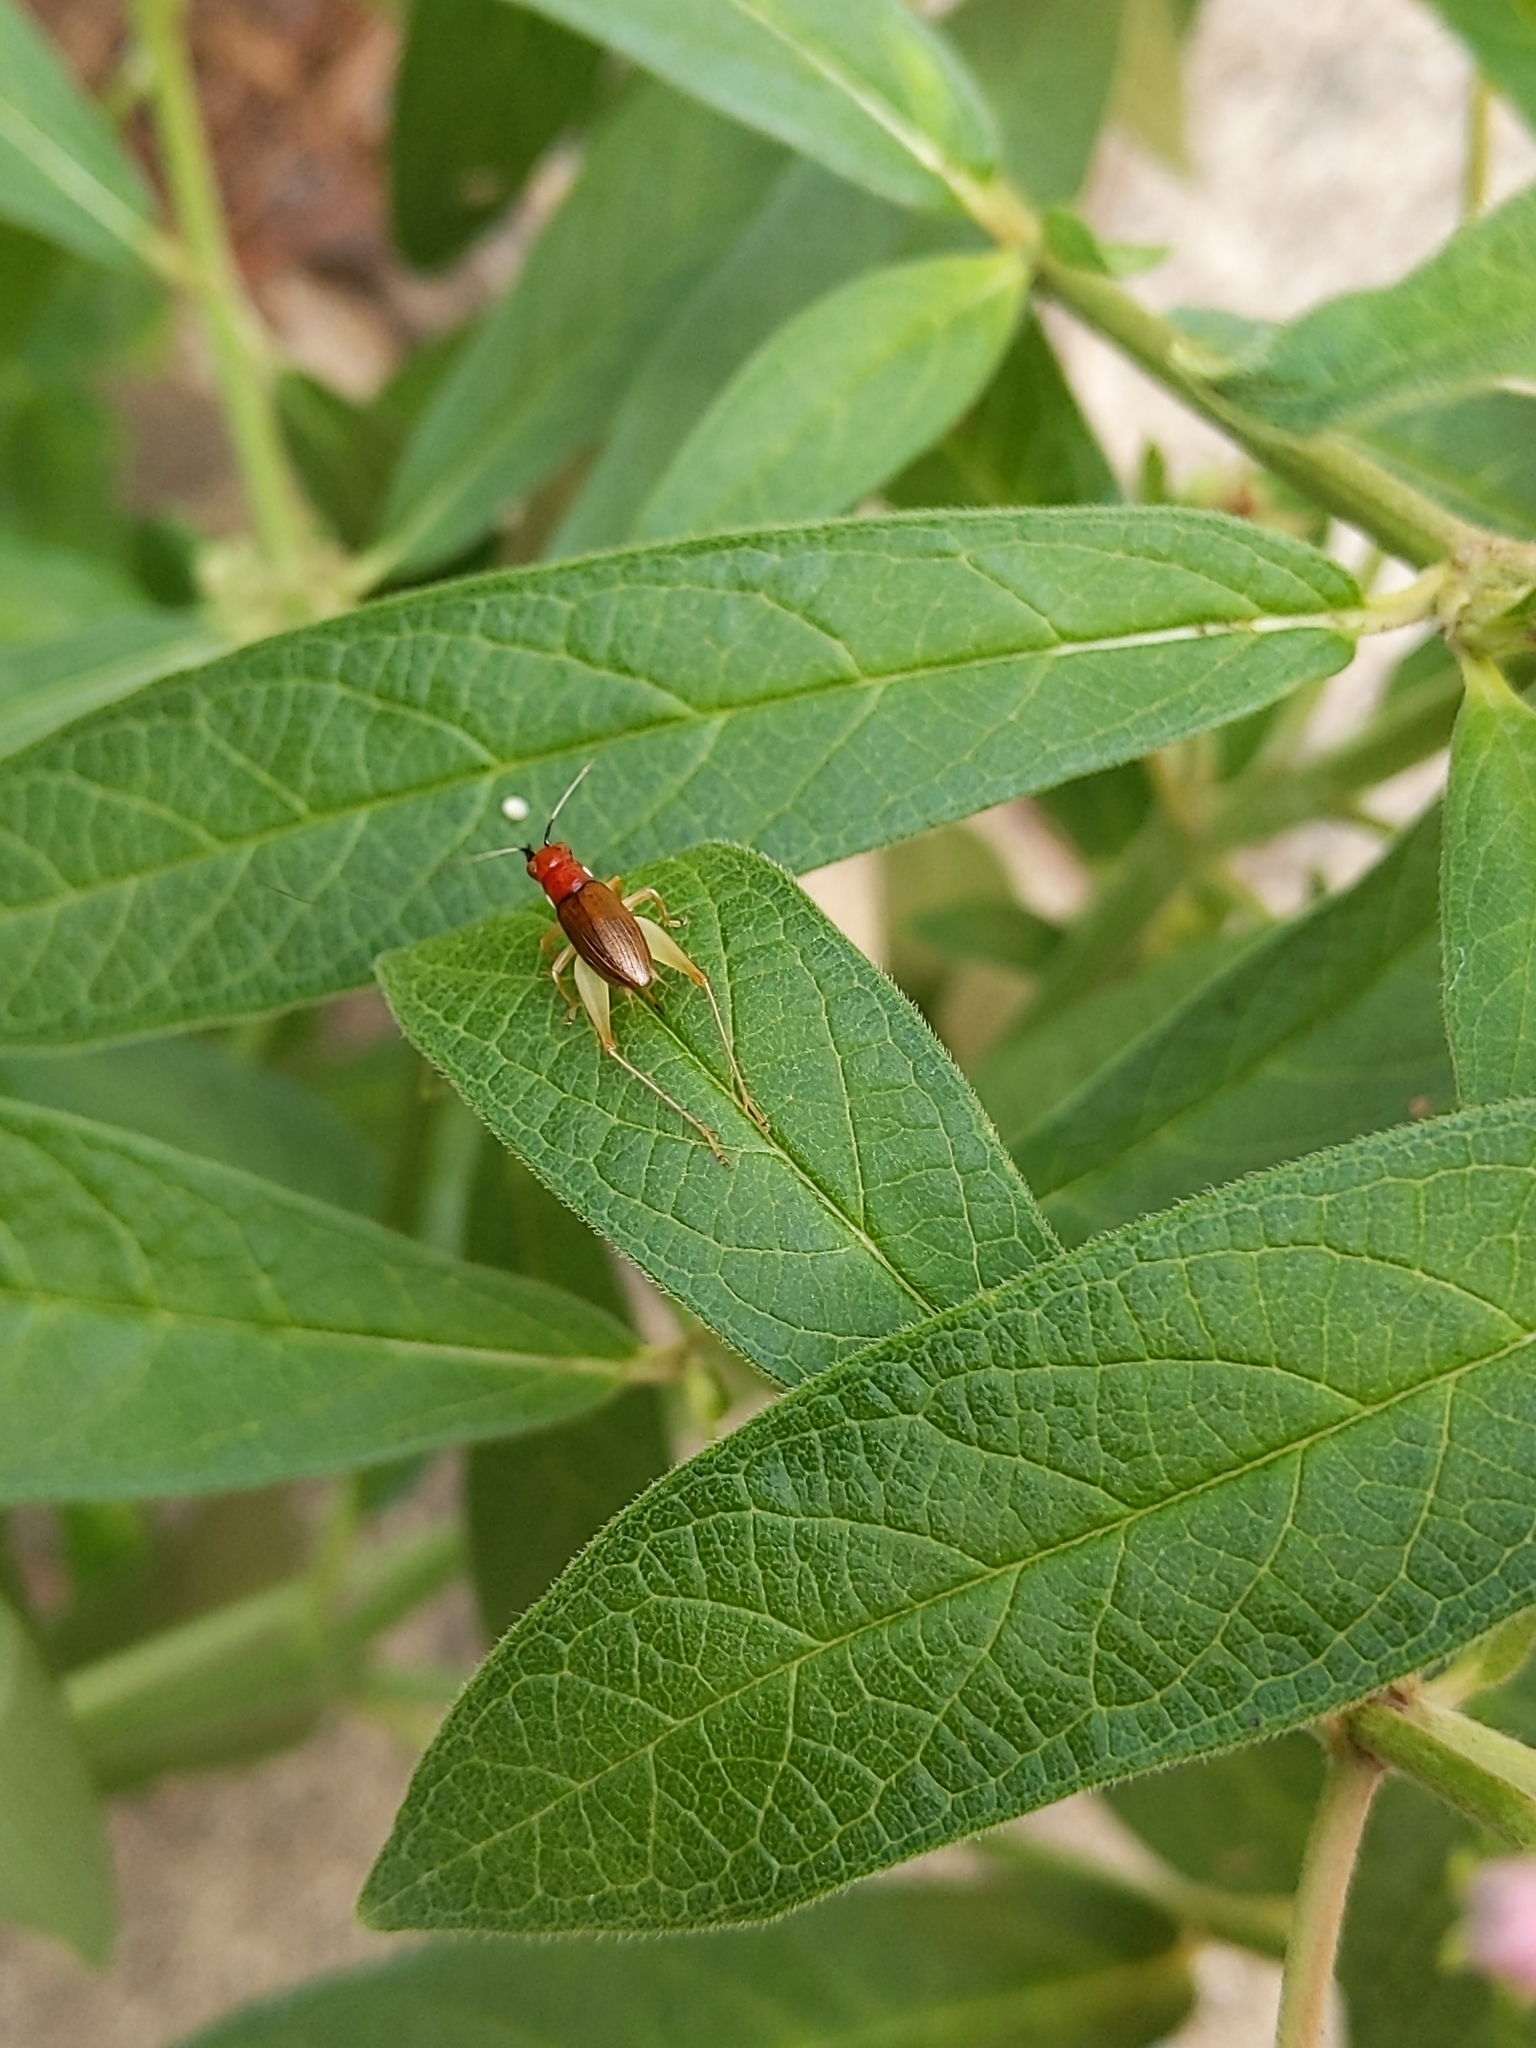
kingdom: Animalia
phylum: Arthropoda
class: Insecta
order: Orthoptera
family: Trigonidiidae
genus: Phyllopalpus
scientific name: Phyllopalpus pulchellus
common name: Handsome trig
